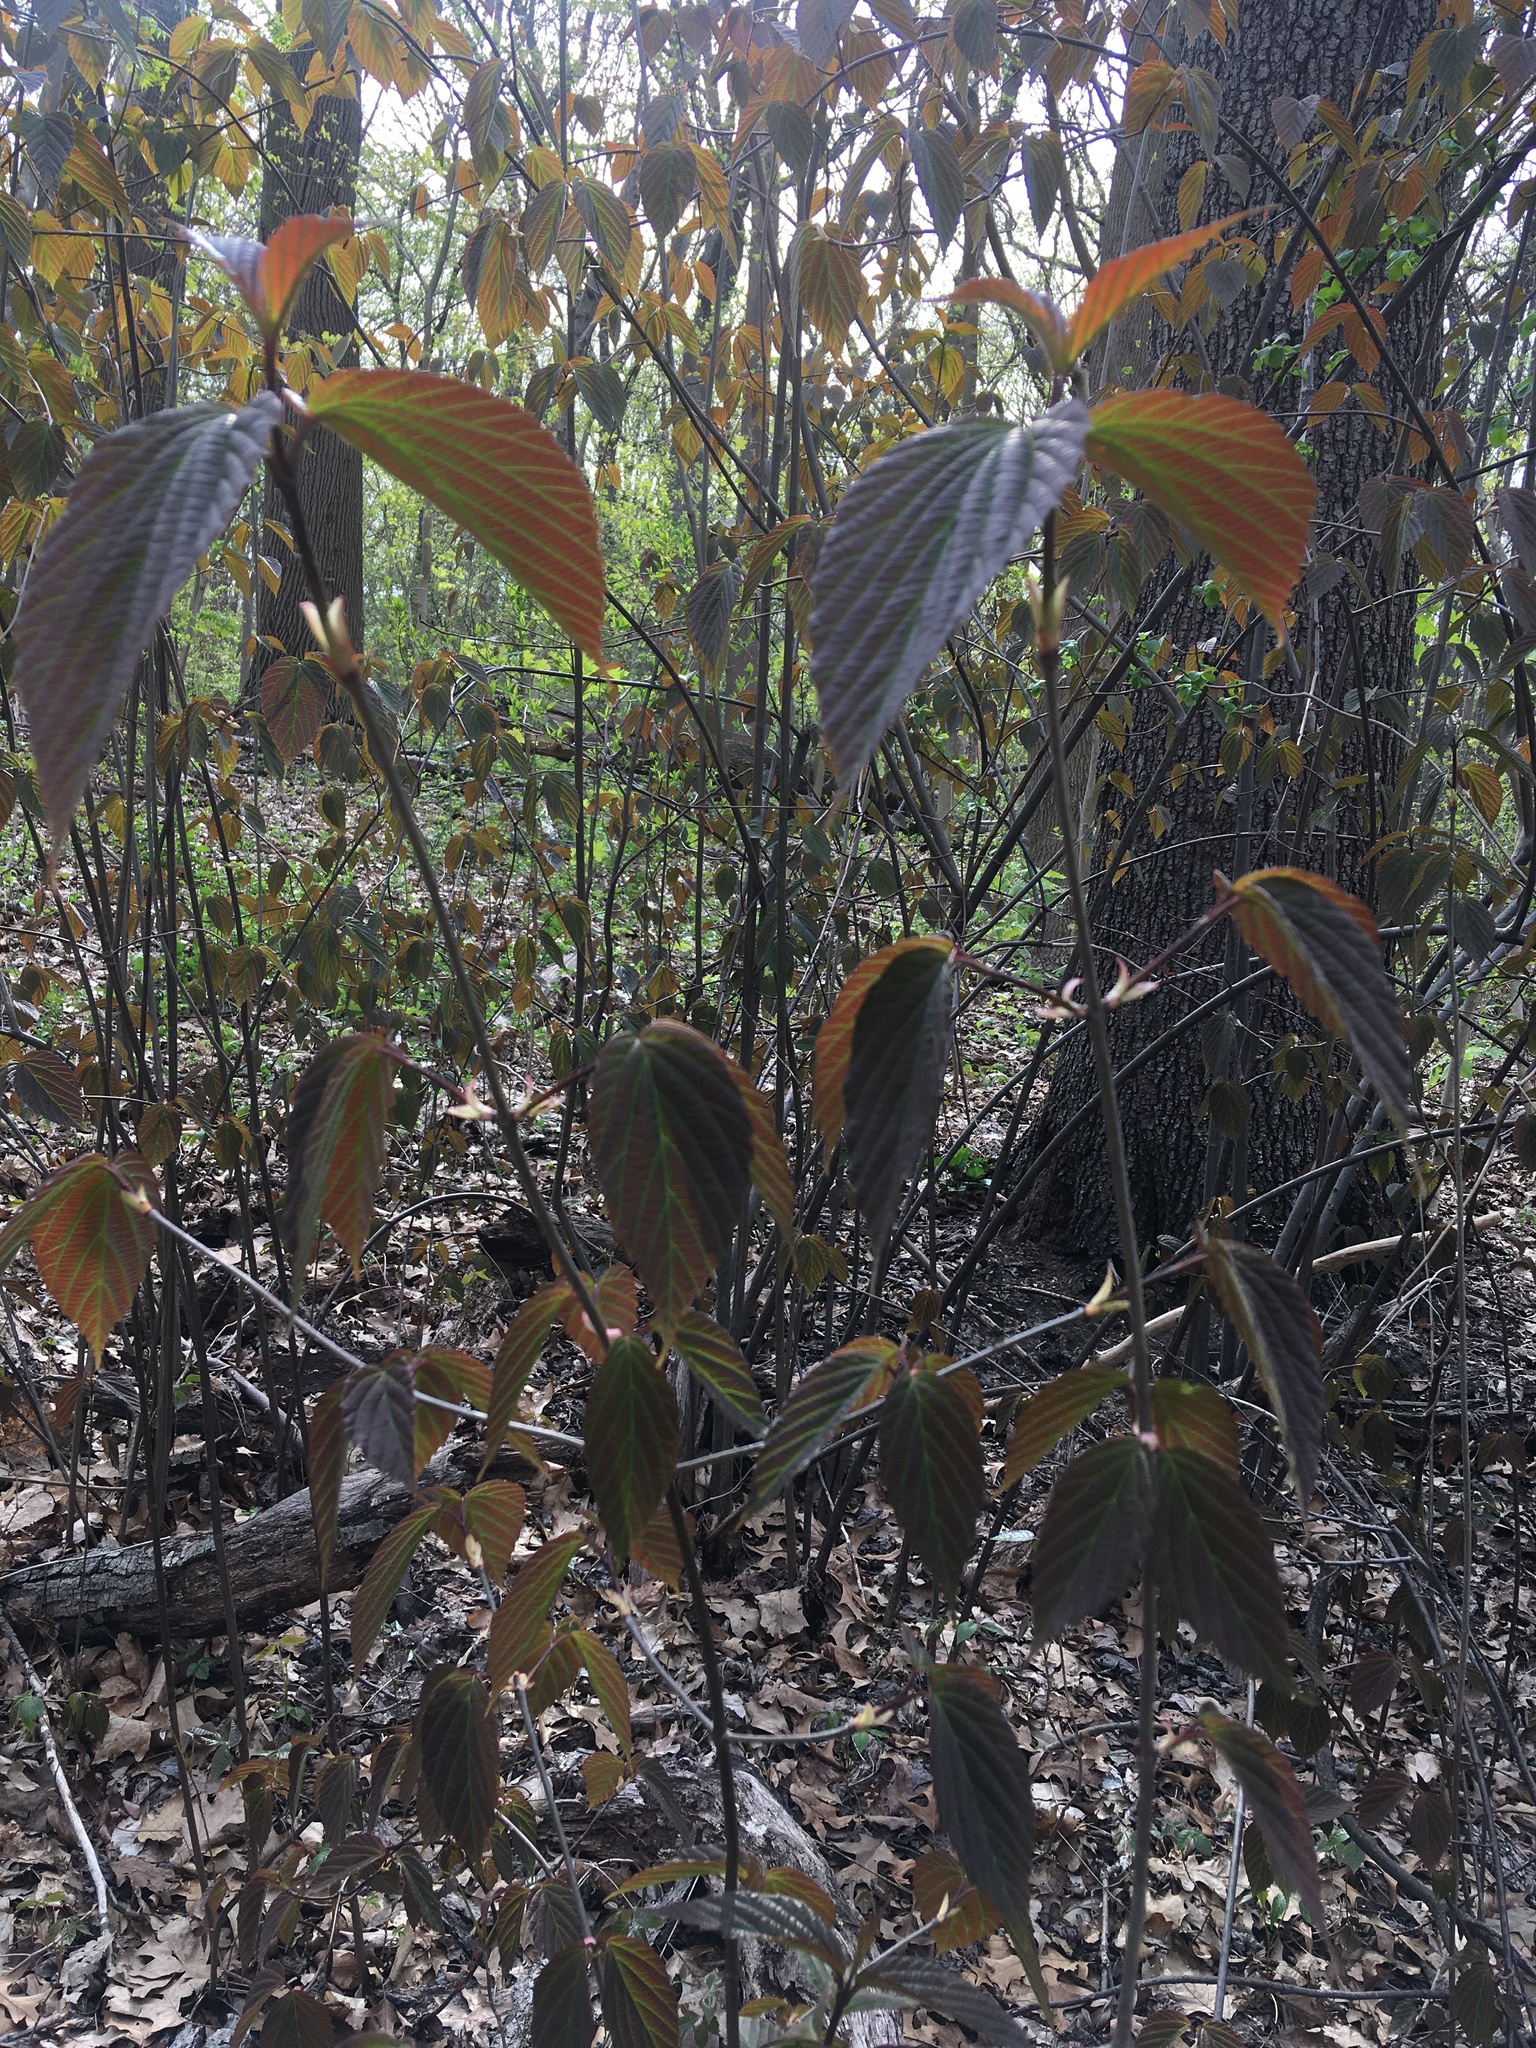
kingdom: Plantae
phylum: Tracheophyta
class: Magnoliopsida
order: Dipsacales
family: Viburnaceae
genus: Viburnum
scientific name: Viburnum setigerum
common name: Tea viburnum
